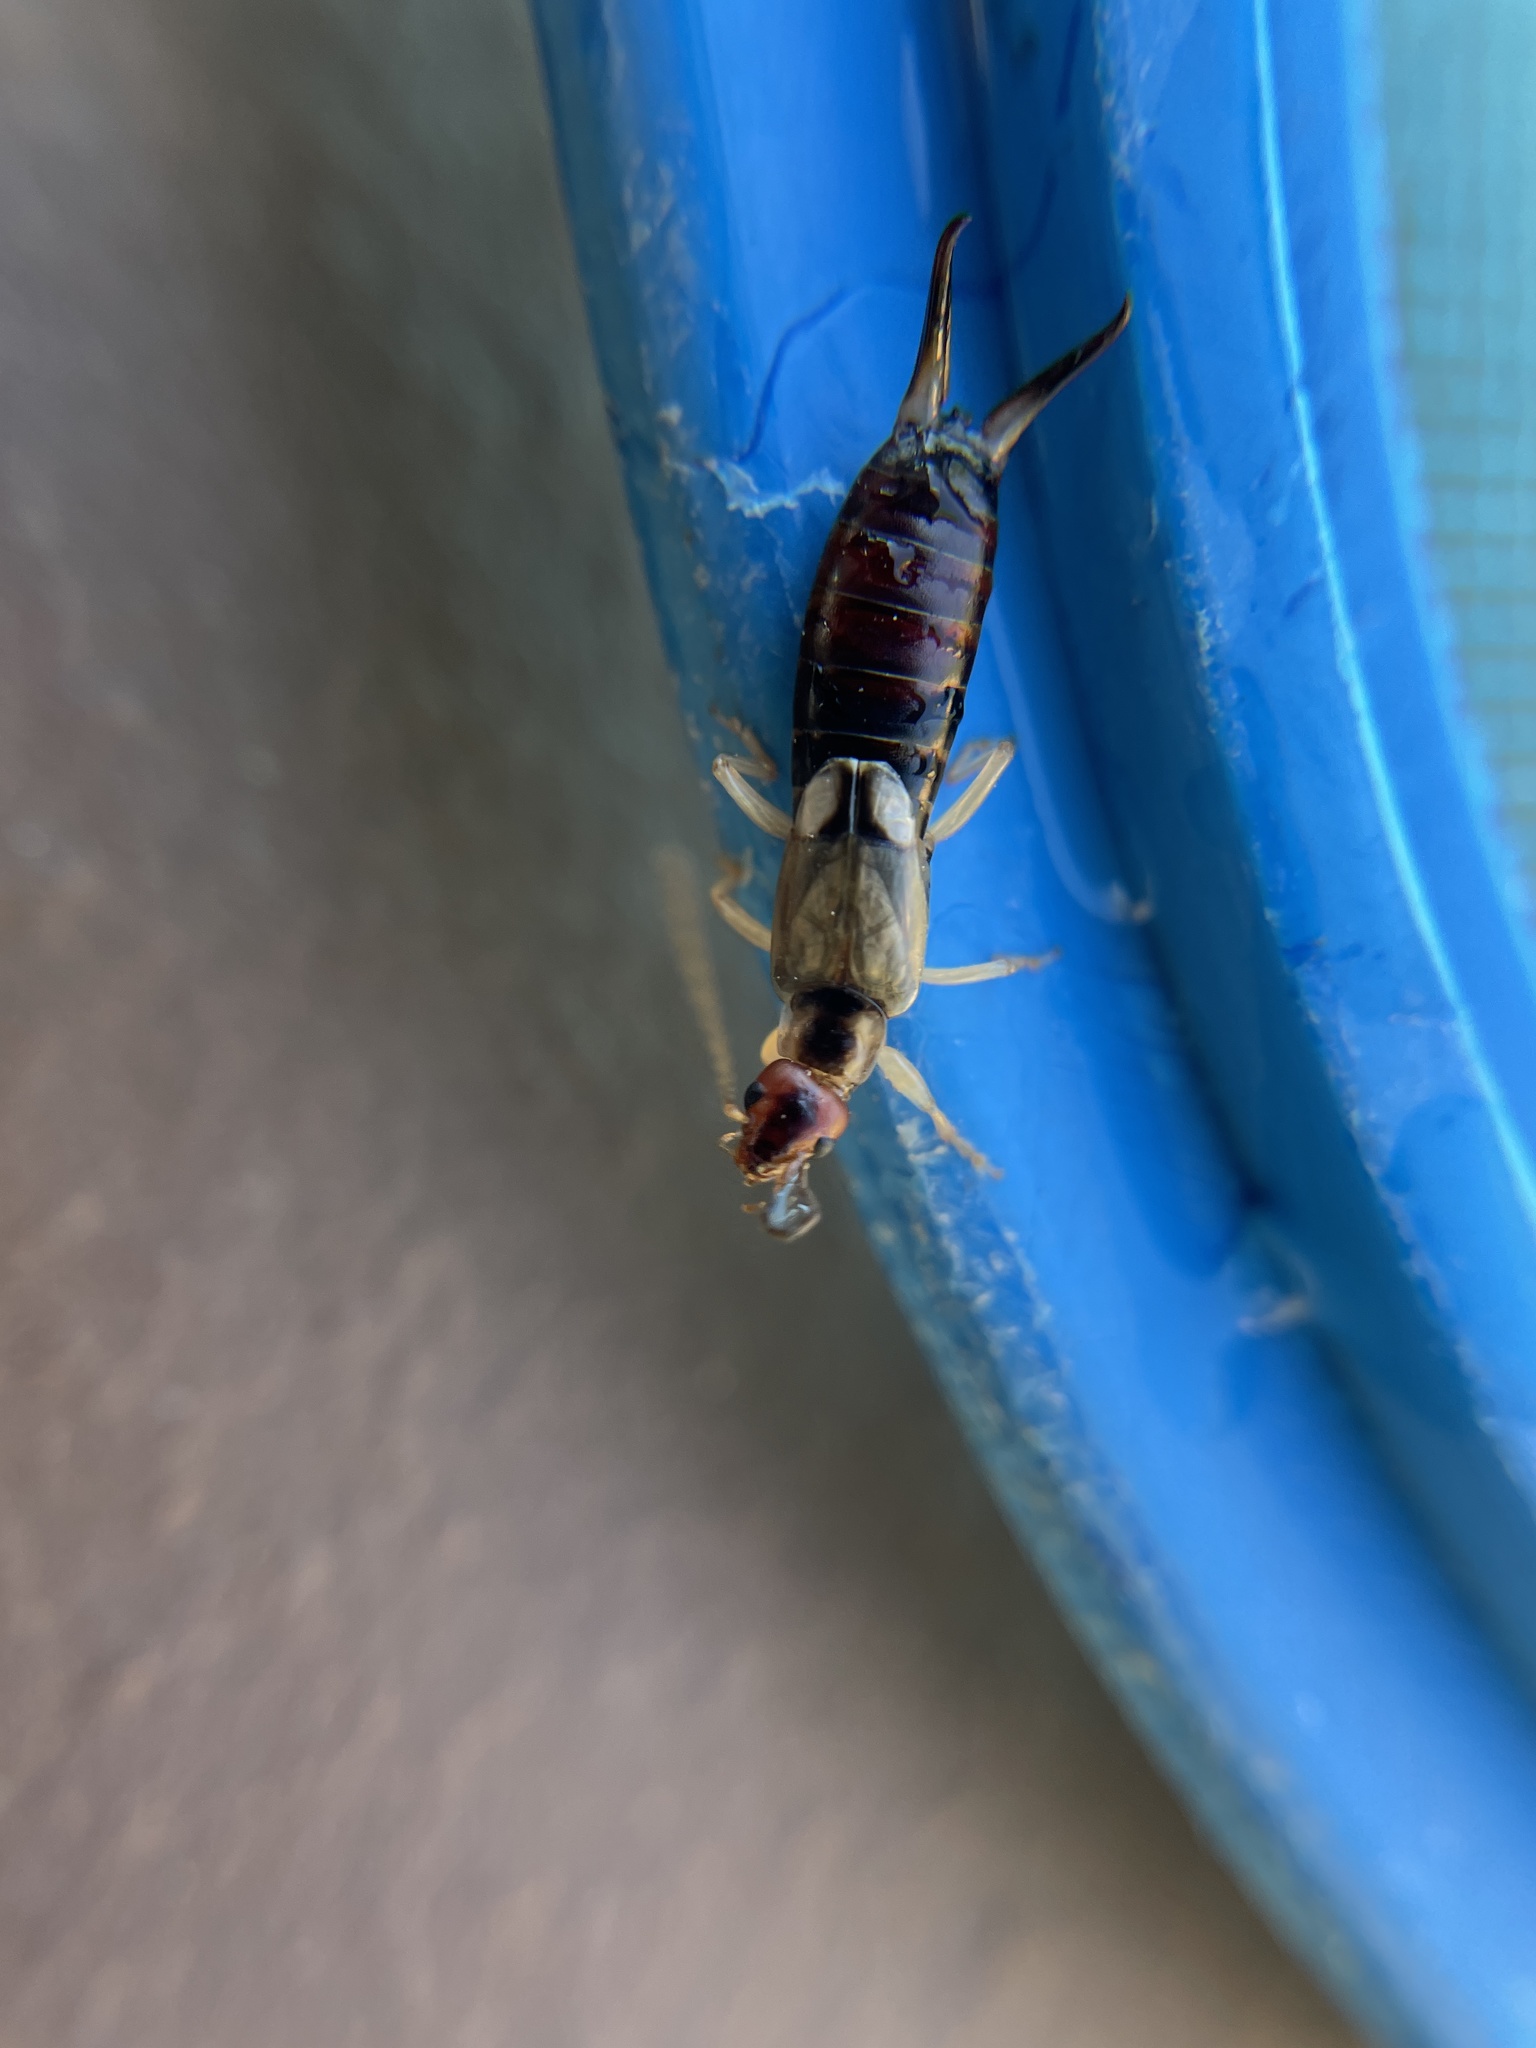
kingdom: Animalia
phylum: Arthropoda
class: Insecta
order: Dermaptera
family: Forficulidae
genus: Forficula
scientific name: Forficula
